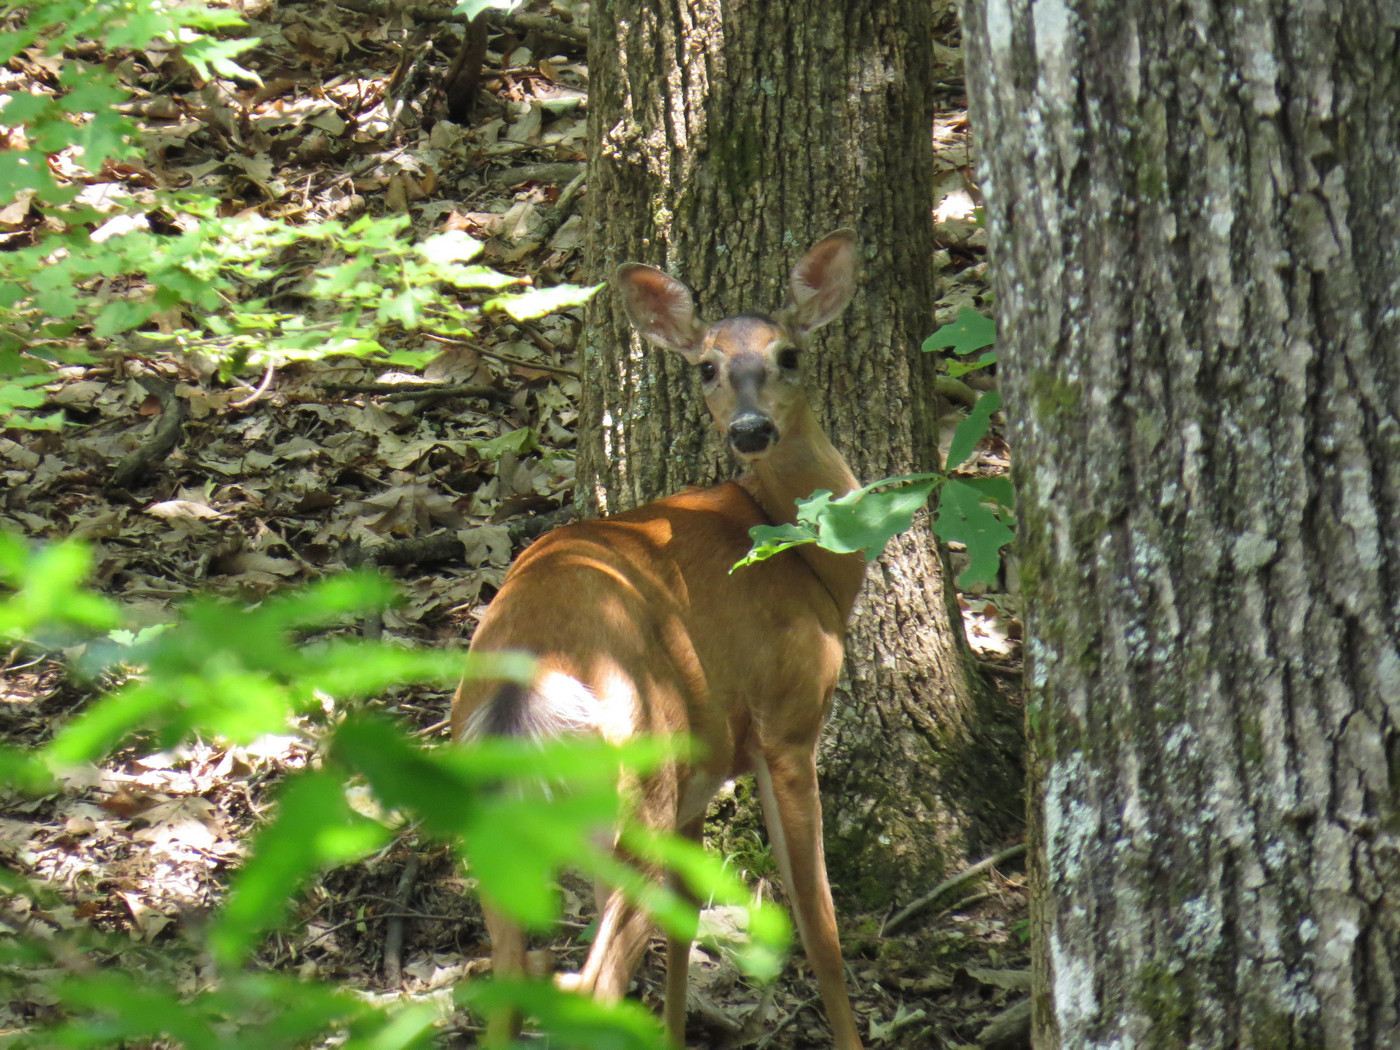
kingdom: Animalia
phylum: Chordata
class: Mammalia
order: Artiodactyla
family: Cervidae
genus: Odocoileus
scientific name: Odocoileus virginianus
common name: White-tailed deer
